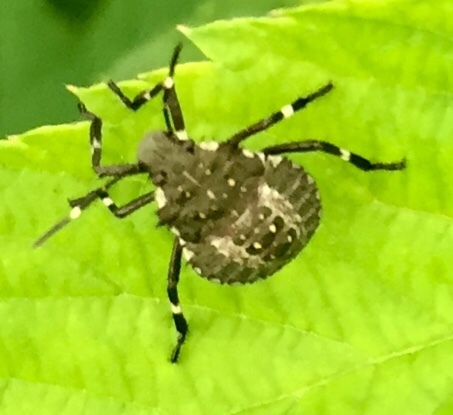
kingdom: Animalia
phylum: Arthropoda
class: Insecta
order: Hemiptera
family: Pentatomidae
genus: Halyomorpha
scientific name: Halyomorpha halys
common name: Brown marmorated stink bug
